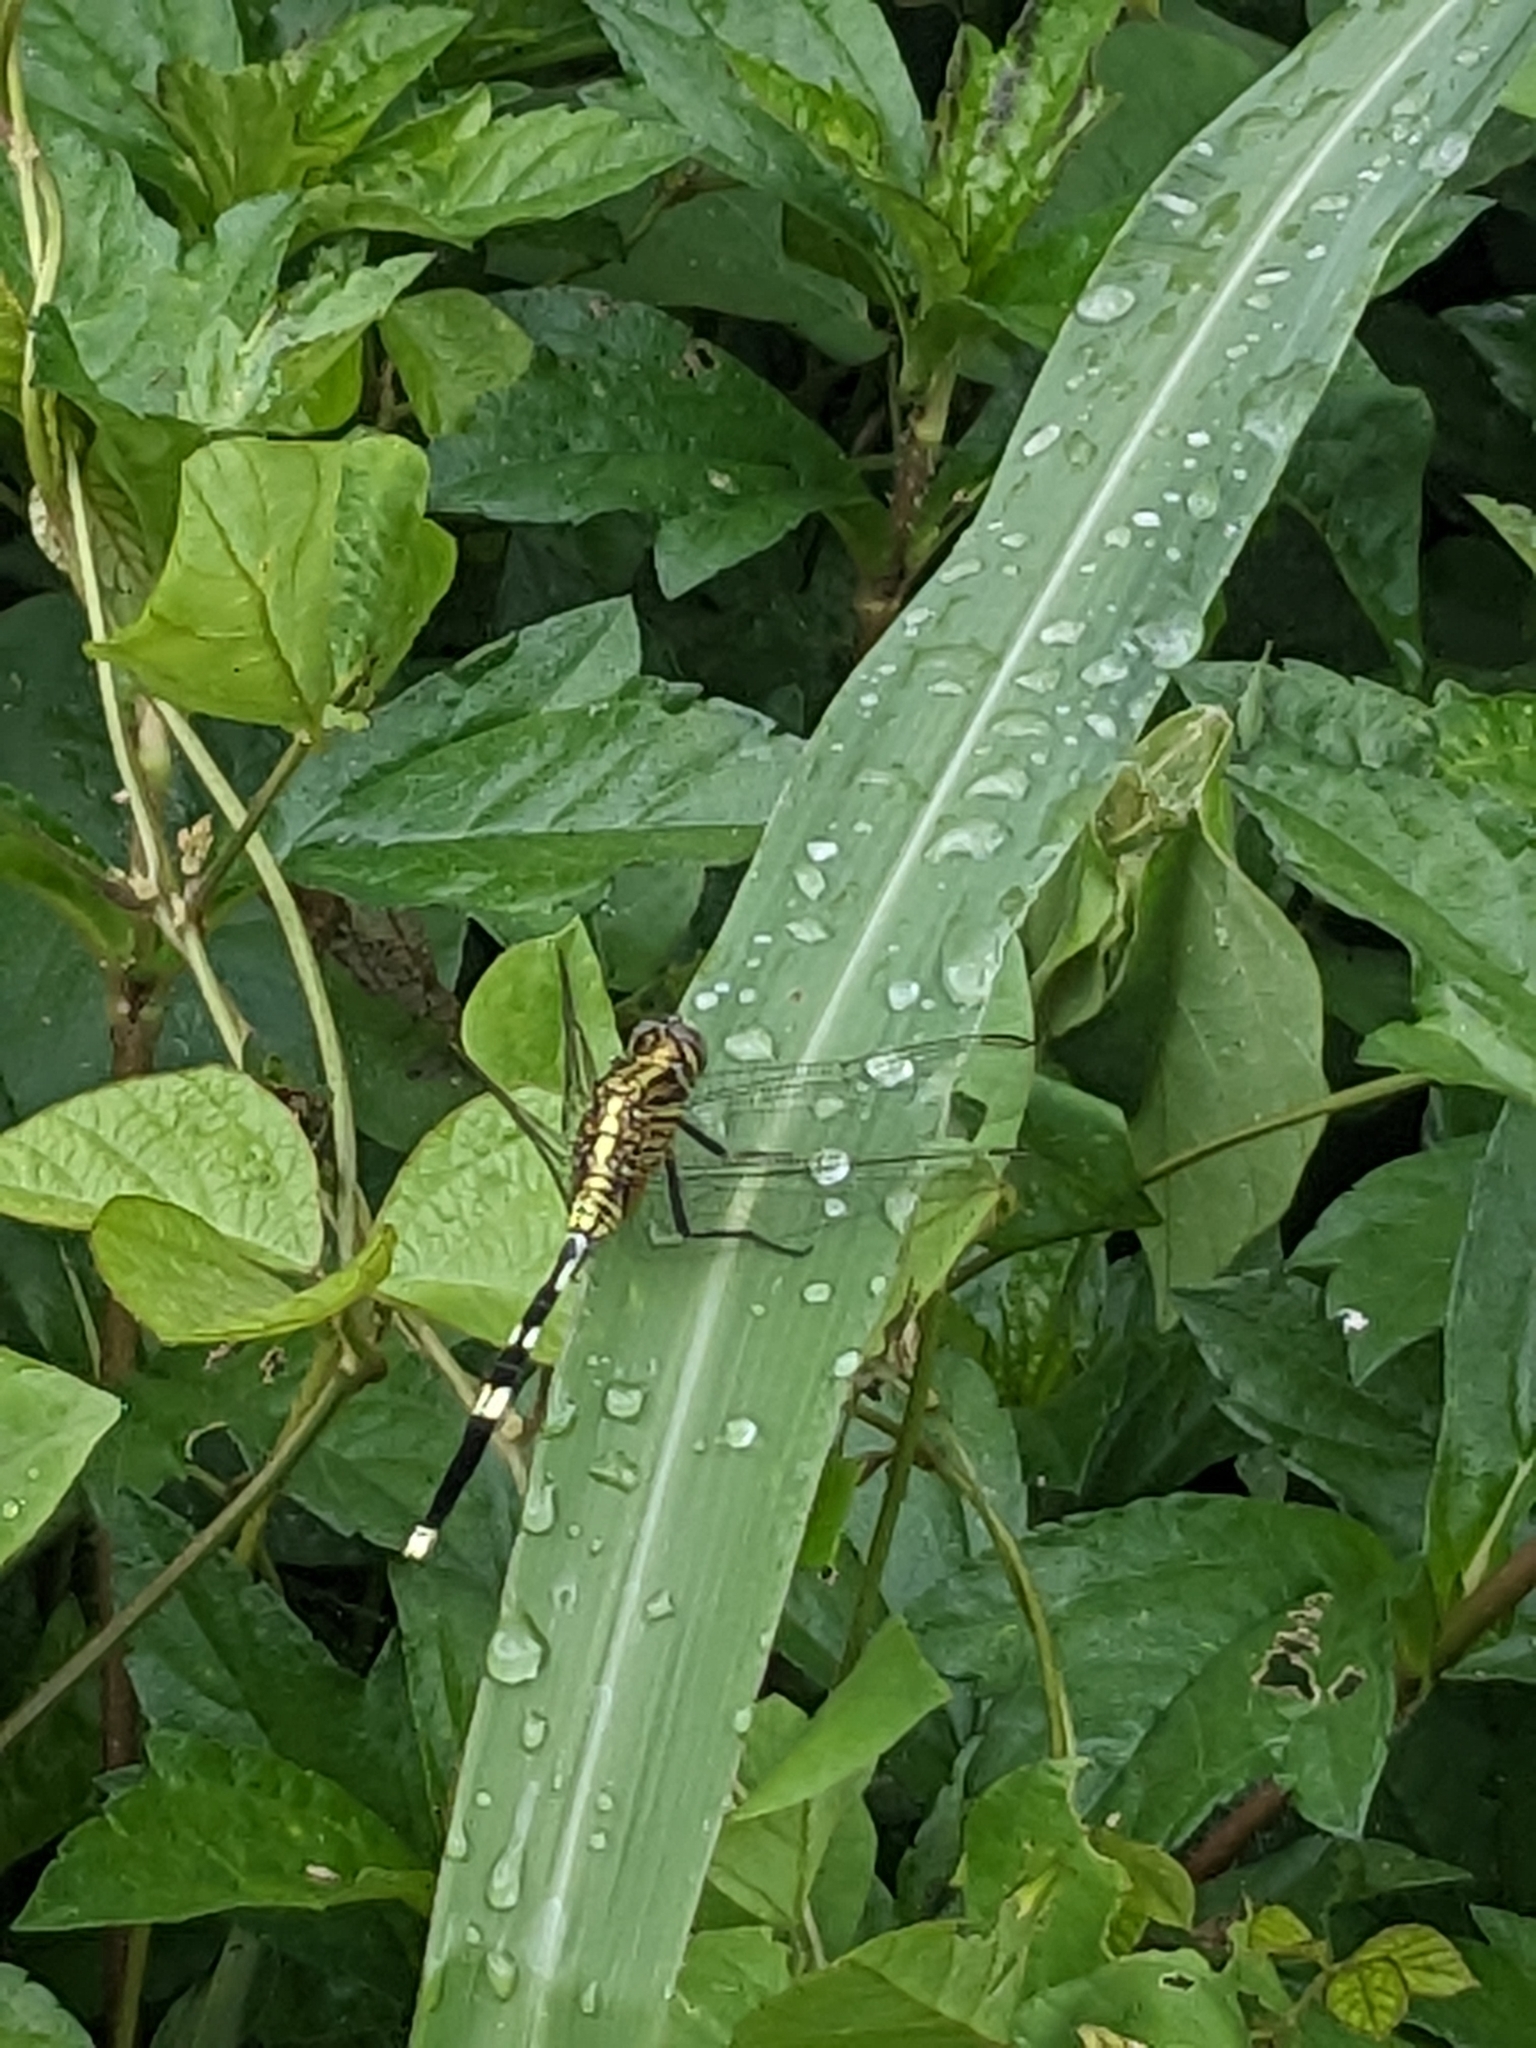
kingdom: Animalia
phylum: Arthropoda
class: Insecta
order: Odonata
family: Libellulidae
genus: Orthetrum
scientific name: Orthetrum sabina
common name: Slender skimmer
